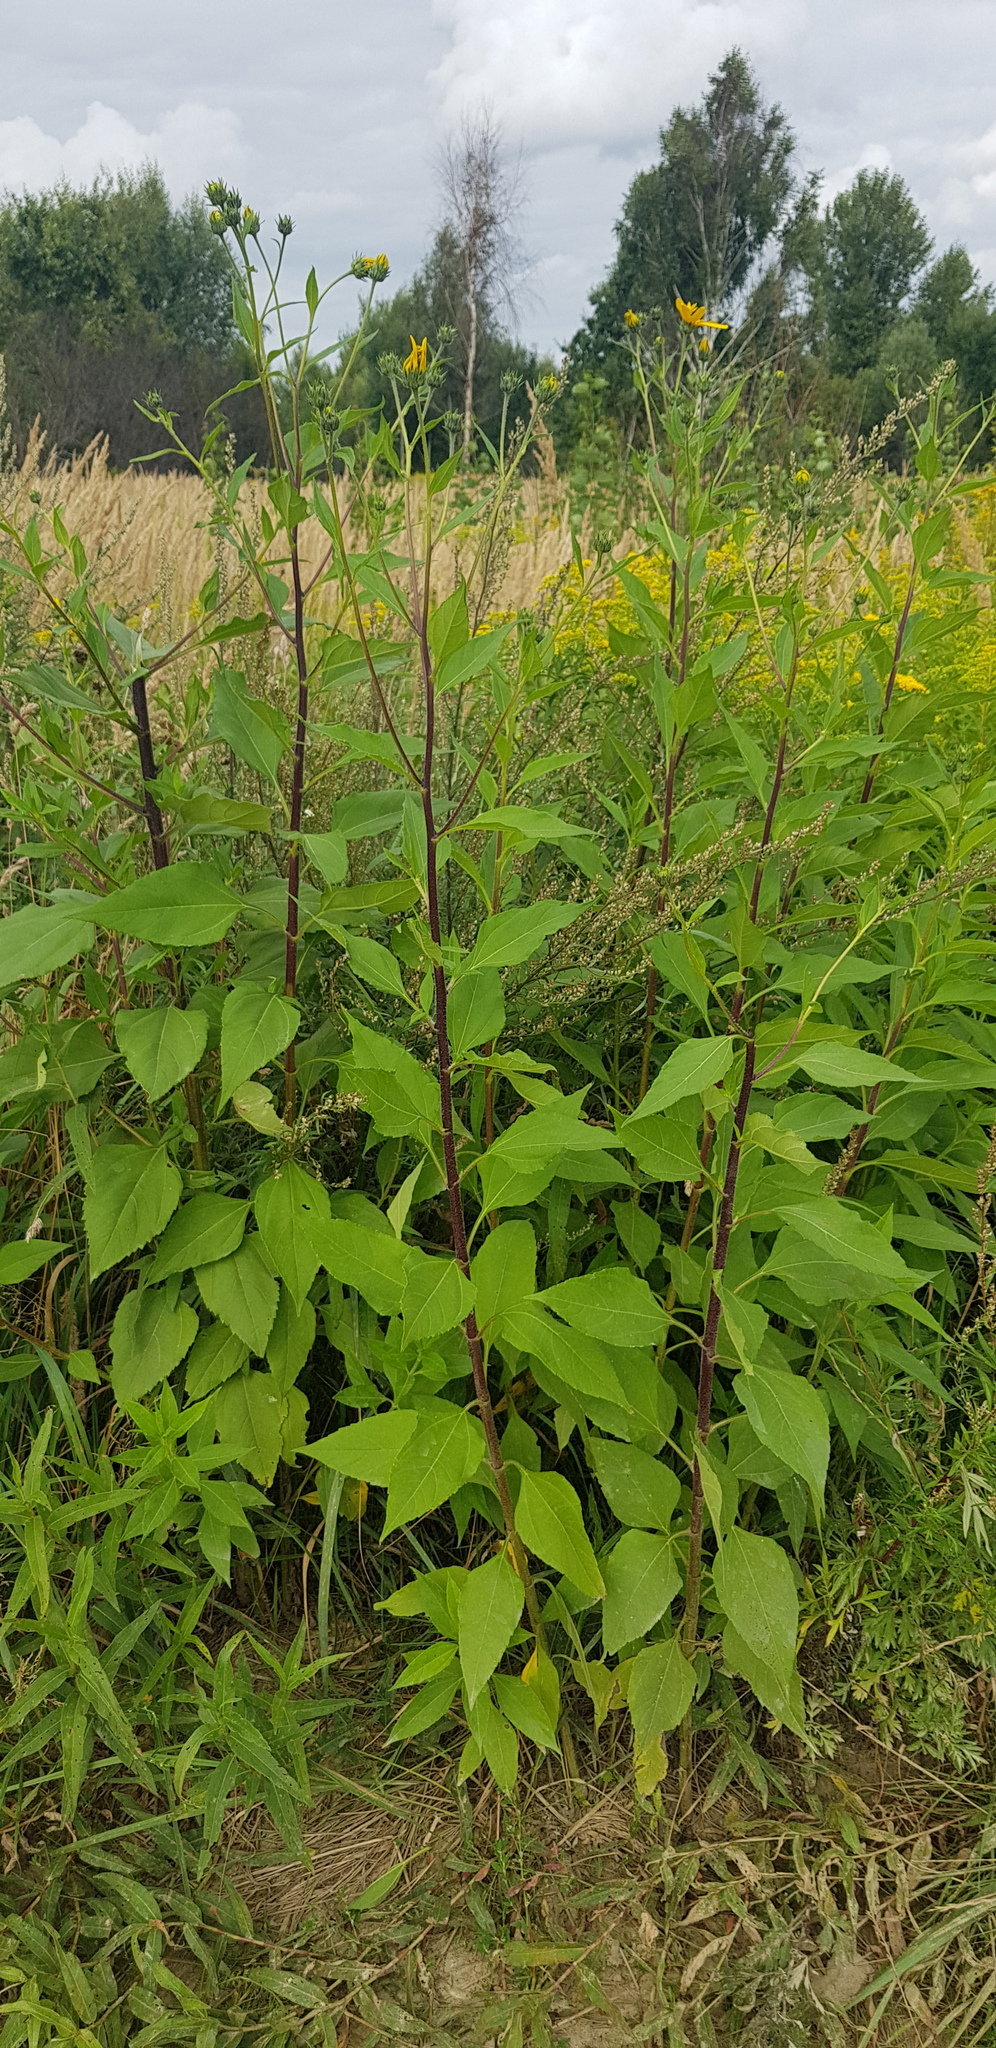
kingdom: Plantae
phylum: Tracheophyta
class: Magnoliopsida
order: Asterales
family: Asteraceae
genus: Helianthus
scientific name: Helianthus tuberosus
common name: Jerusalem artichoke
